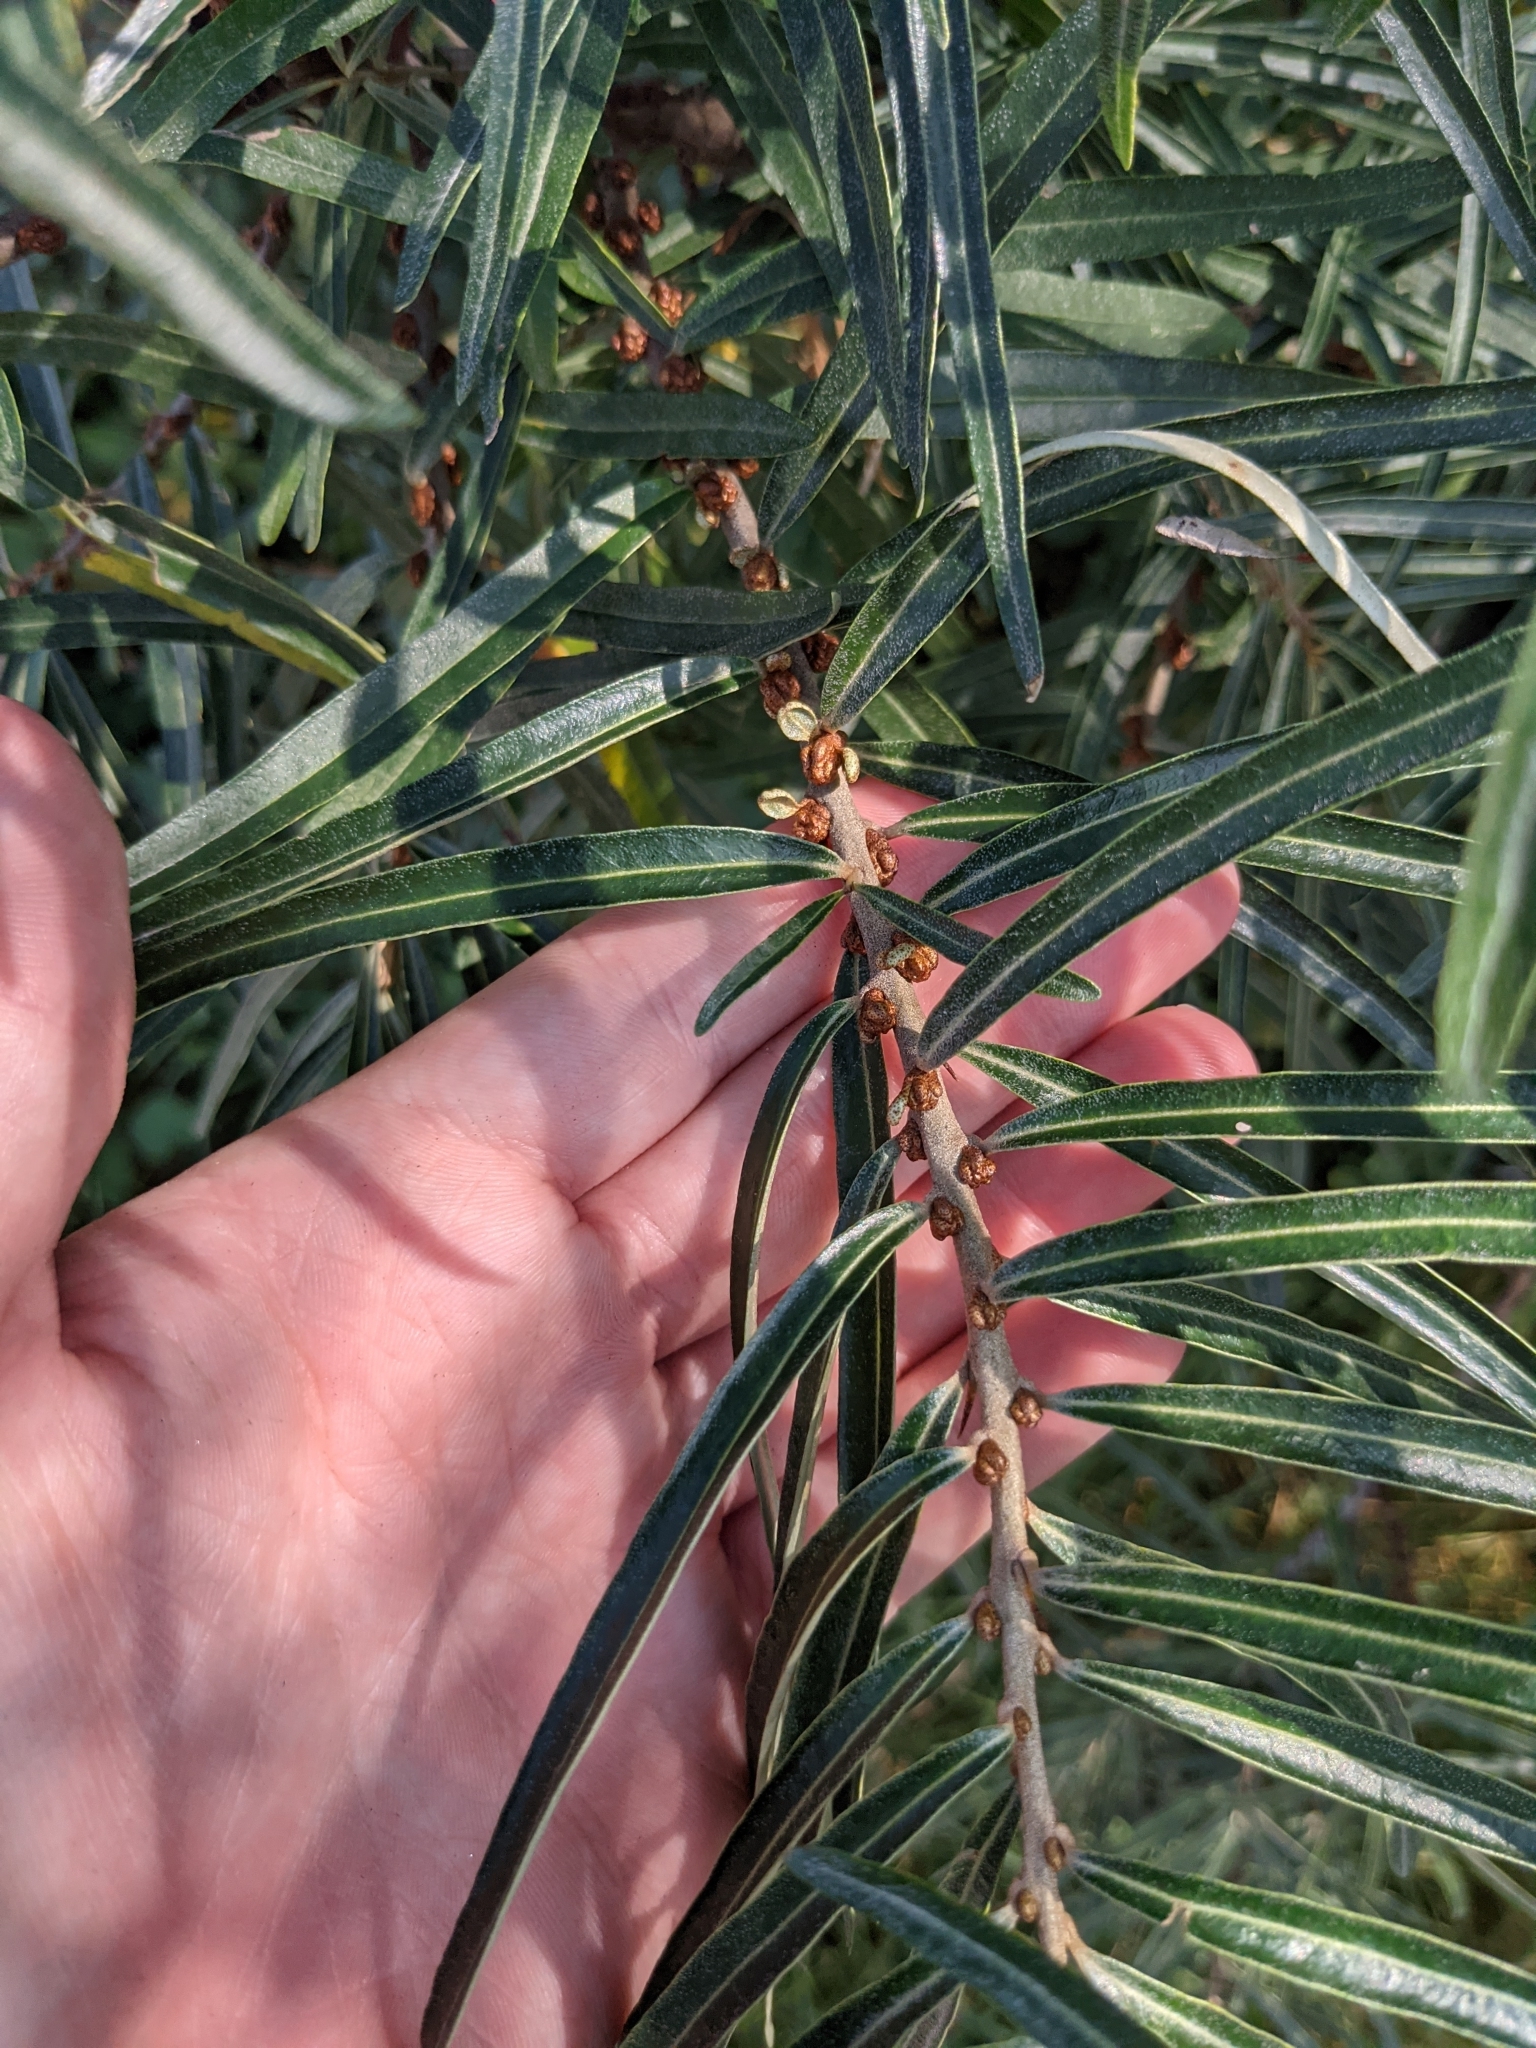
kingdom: Plantae
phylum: Tracheophyta
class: Magnoliopsida
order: Rosales
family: Elaeagnaceae
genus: Hippophae
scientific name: Hippophae rhamnoides
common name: Sea-buckthorn
